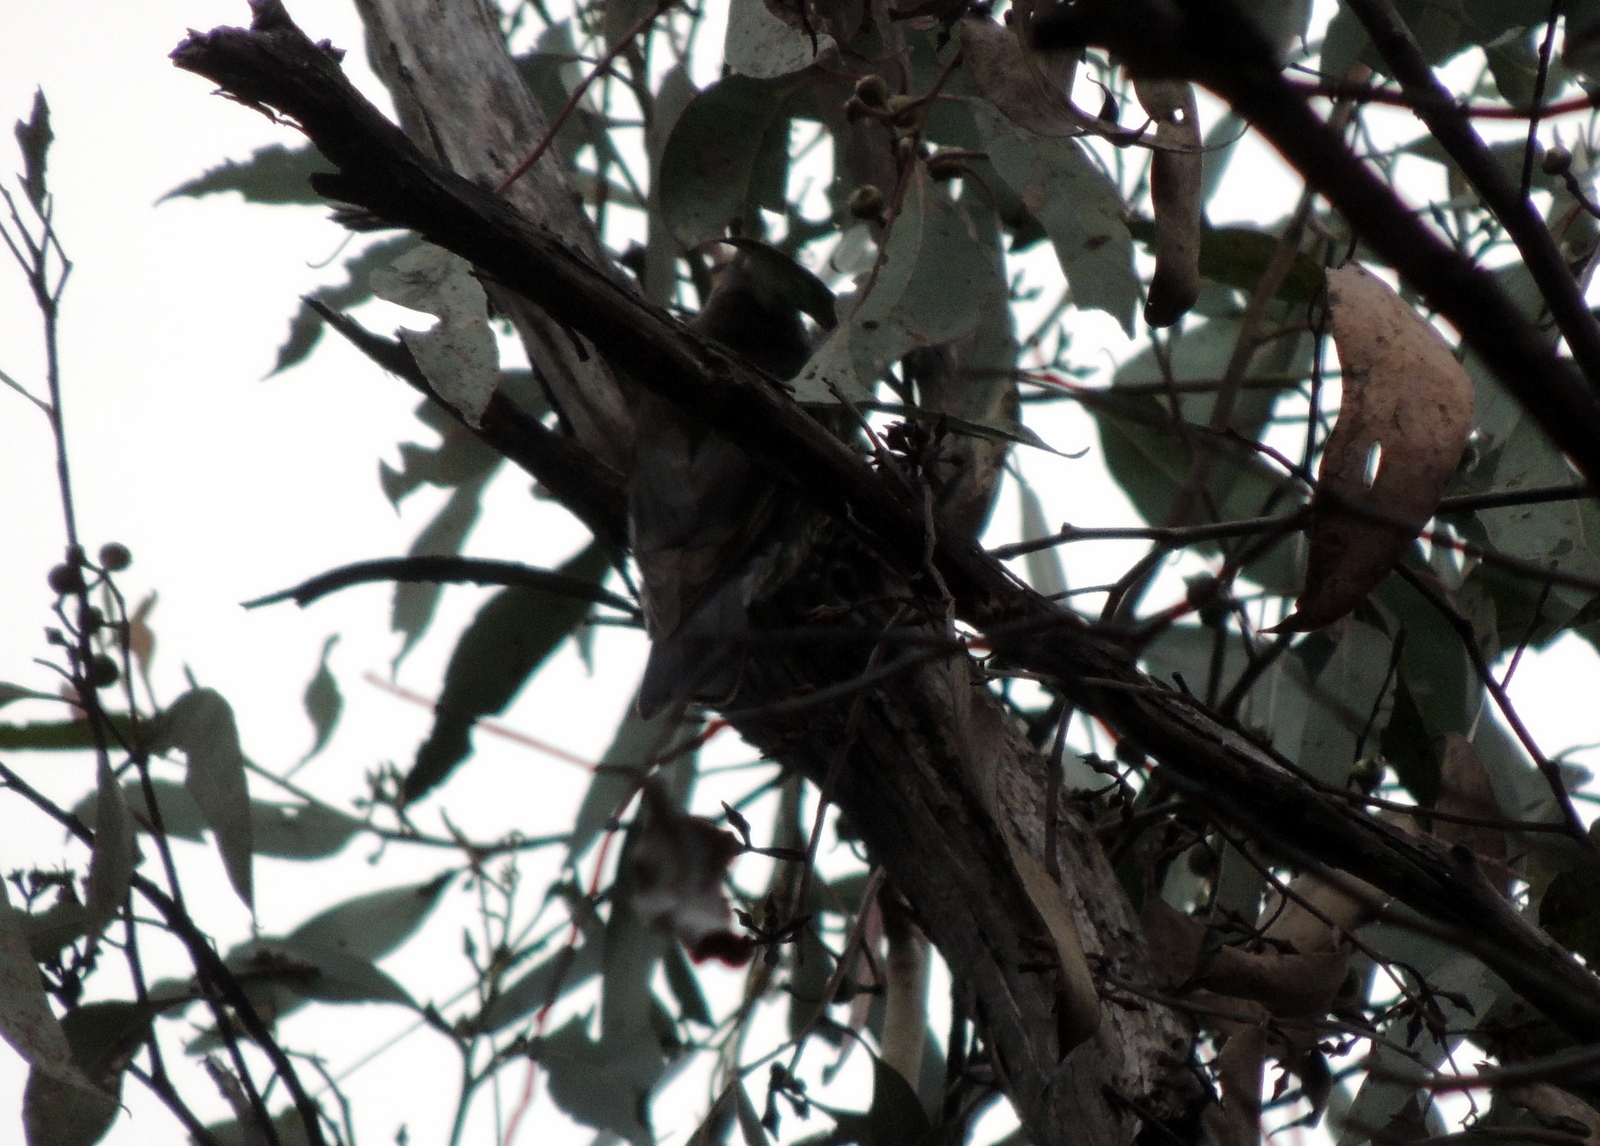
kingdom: Animalia
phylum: Chordata
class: Aves
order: Passeriformes
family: Climacteridae
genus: Cormobates
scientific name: Cormobates leucophaea
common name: White-throated treecreeper
